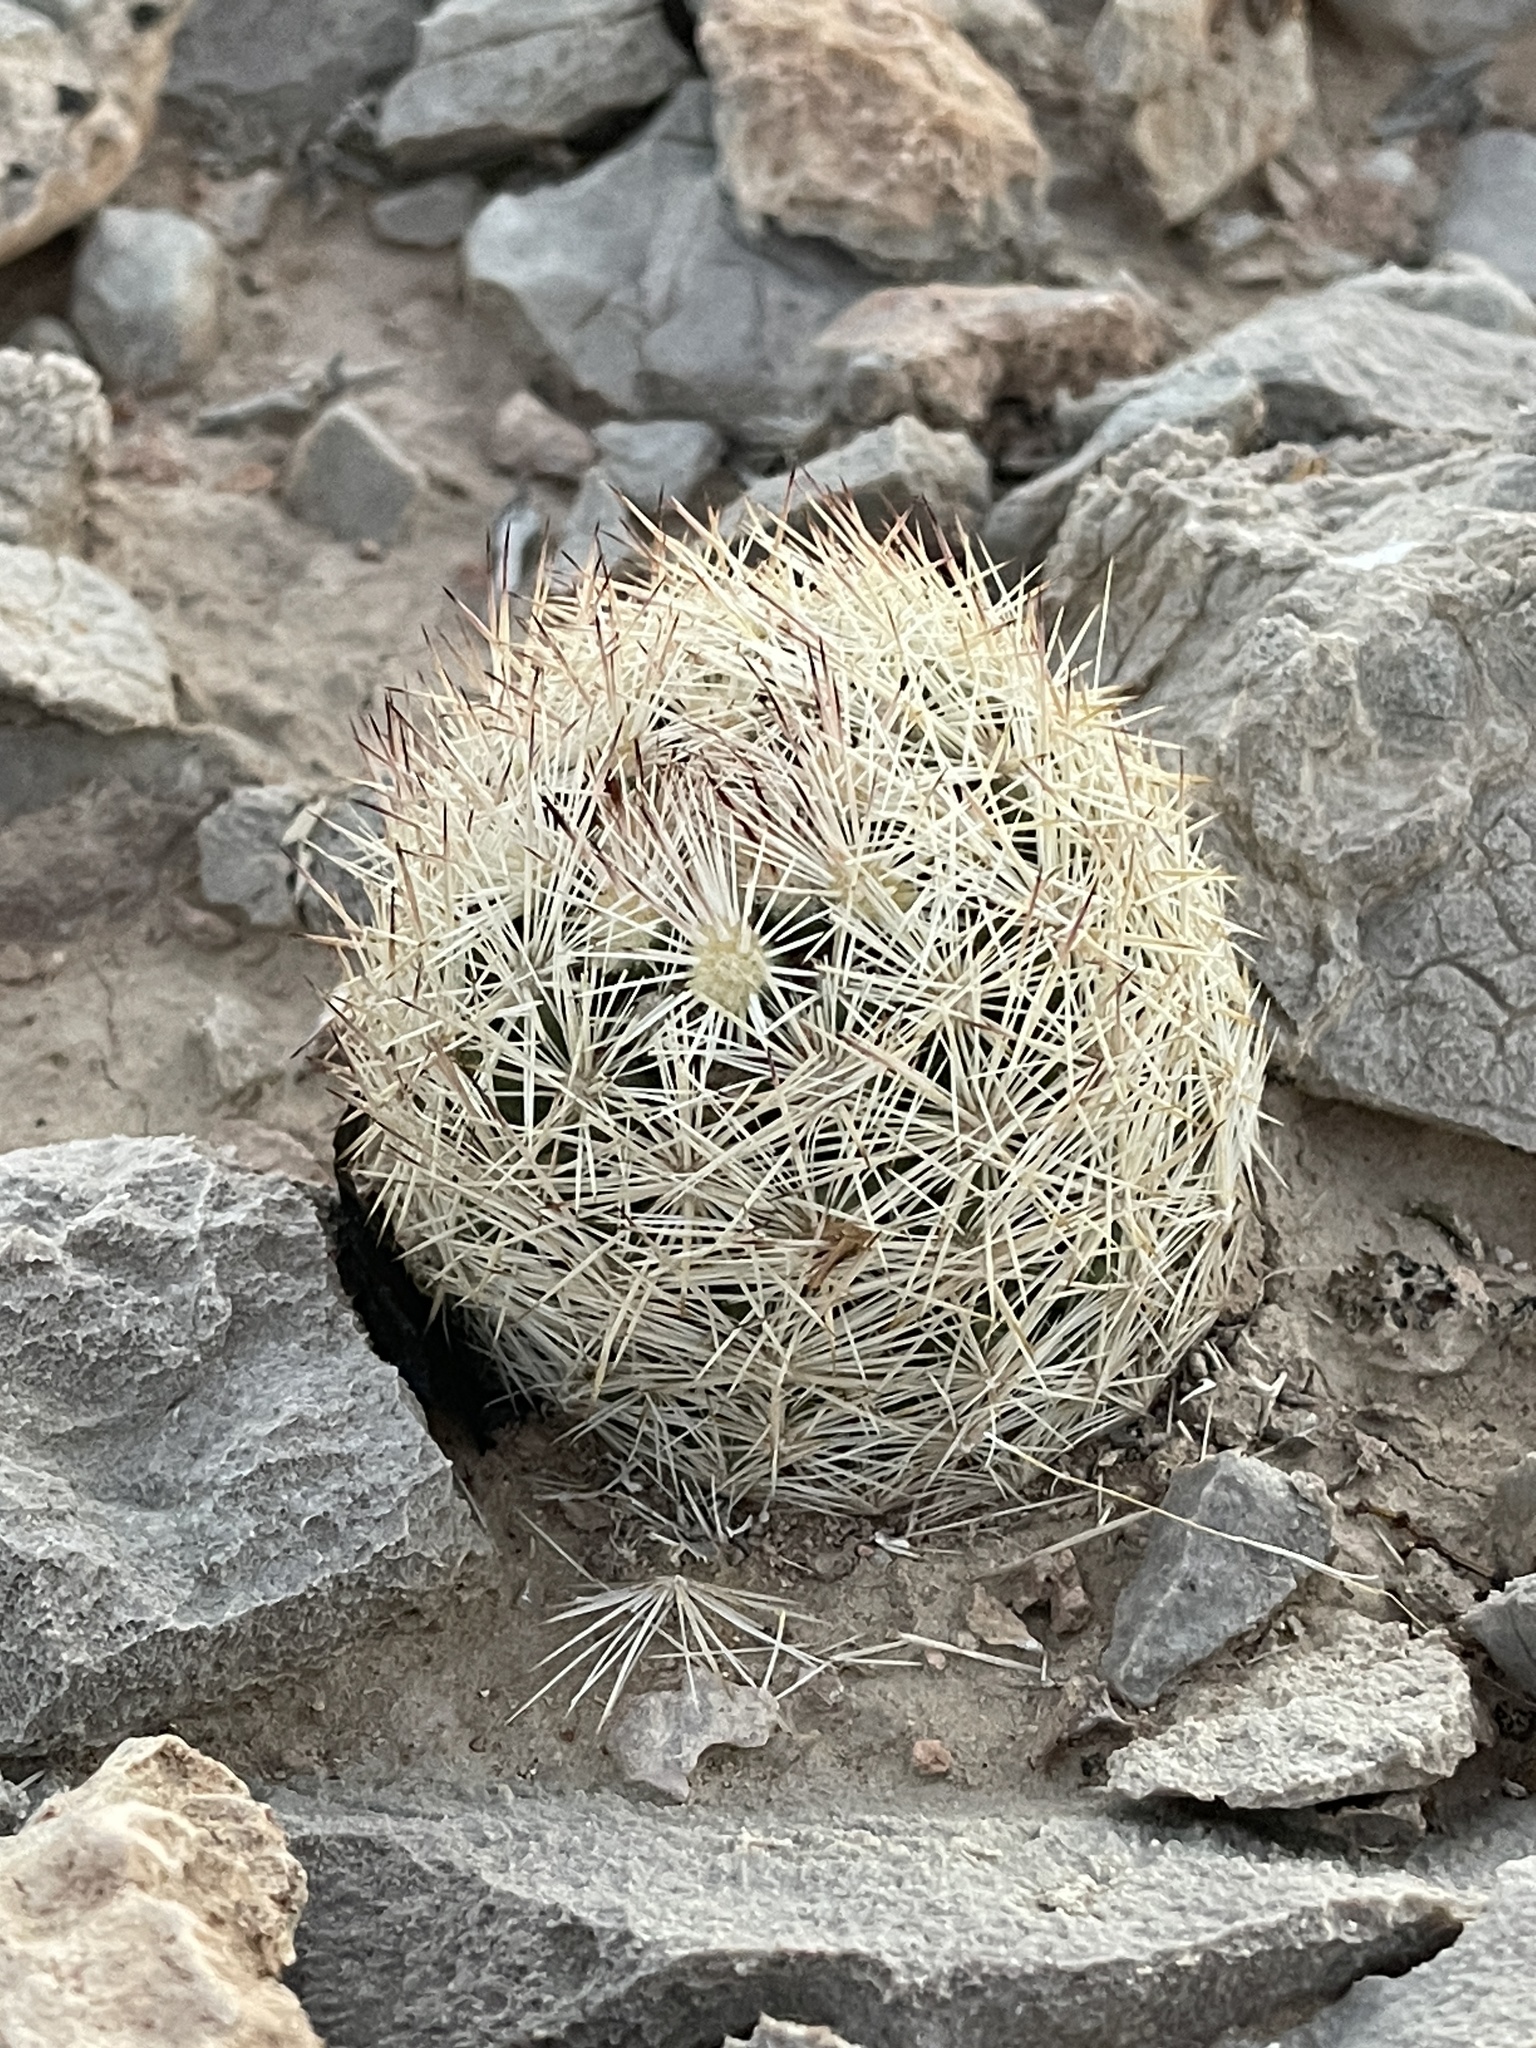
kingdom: Plantae
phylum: Tracheophyta
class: Magnoliopsida
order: Caryophyllales
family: Cactaceae
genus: Pelecyphora
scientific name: Pelecyphora dasyacantha
